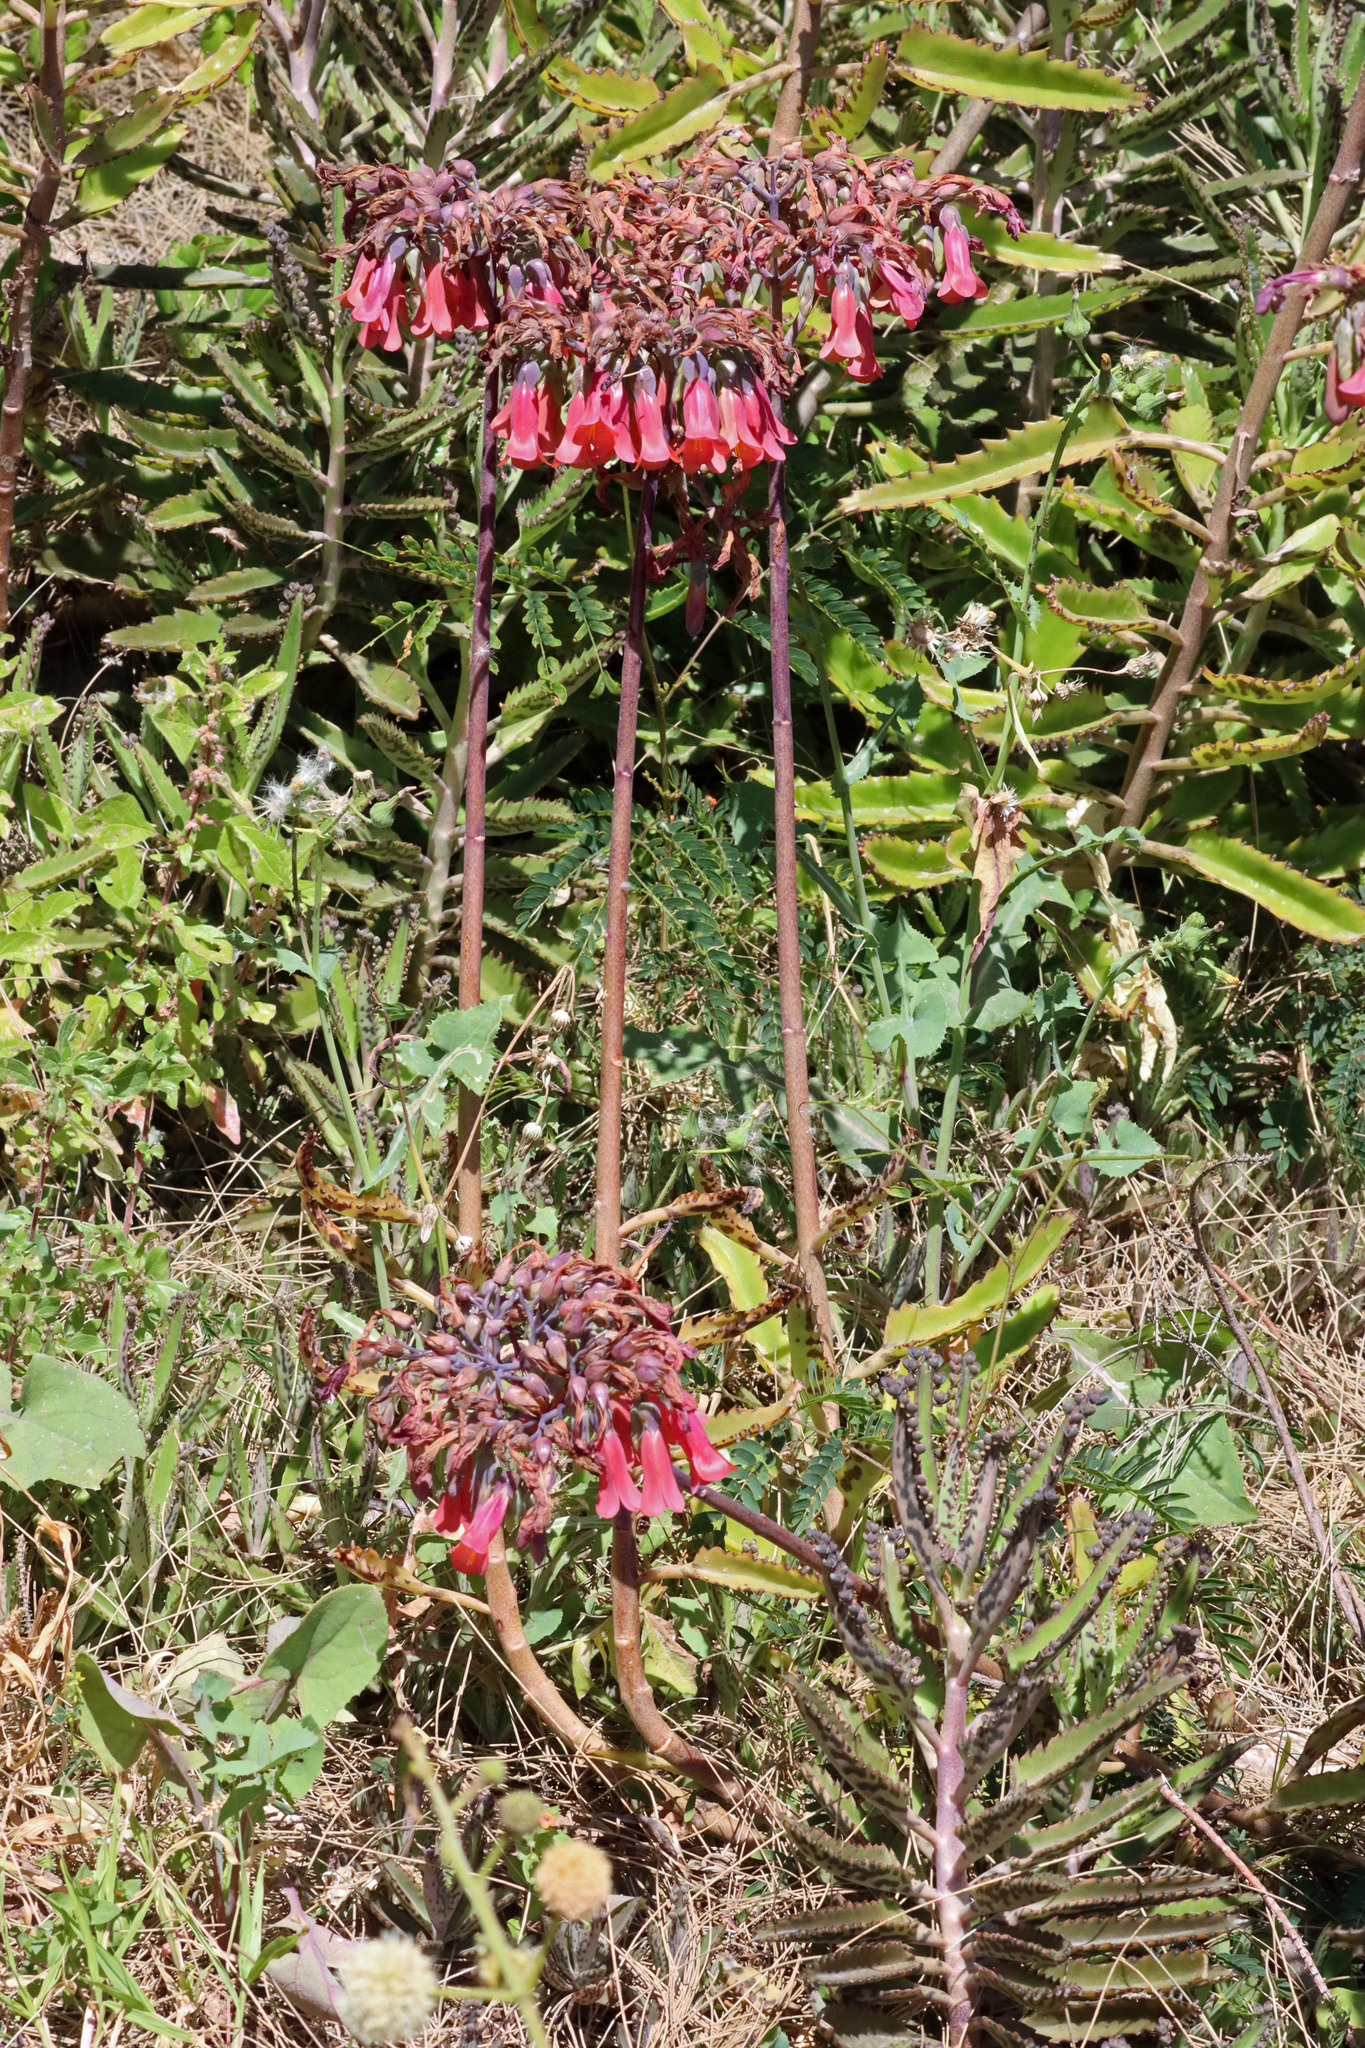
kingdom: Plantae
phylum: Tracheophyta
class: Magnoliopsida
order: Saxifragales
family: Crassulaceae
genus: Kalanchoe
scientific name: Kalanchoe houghtonii
